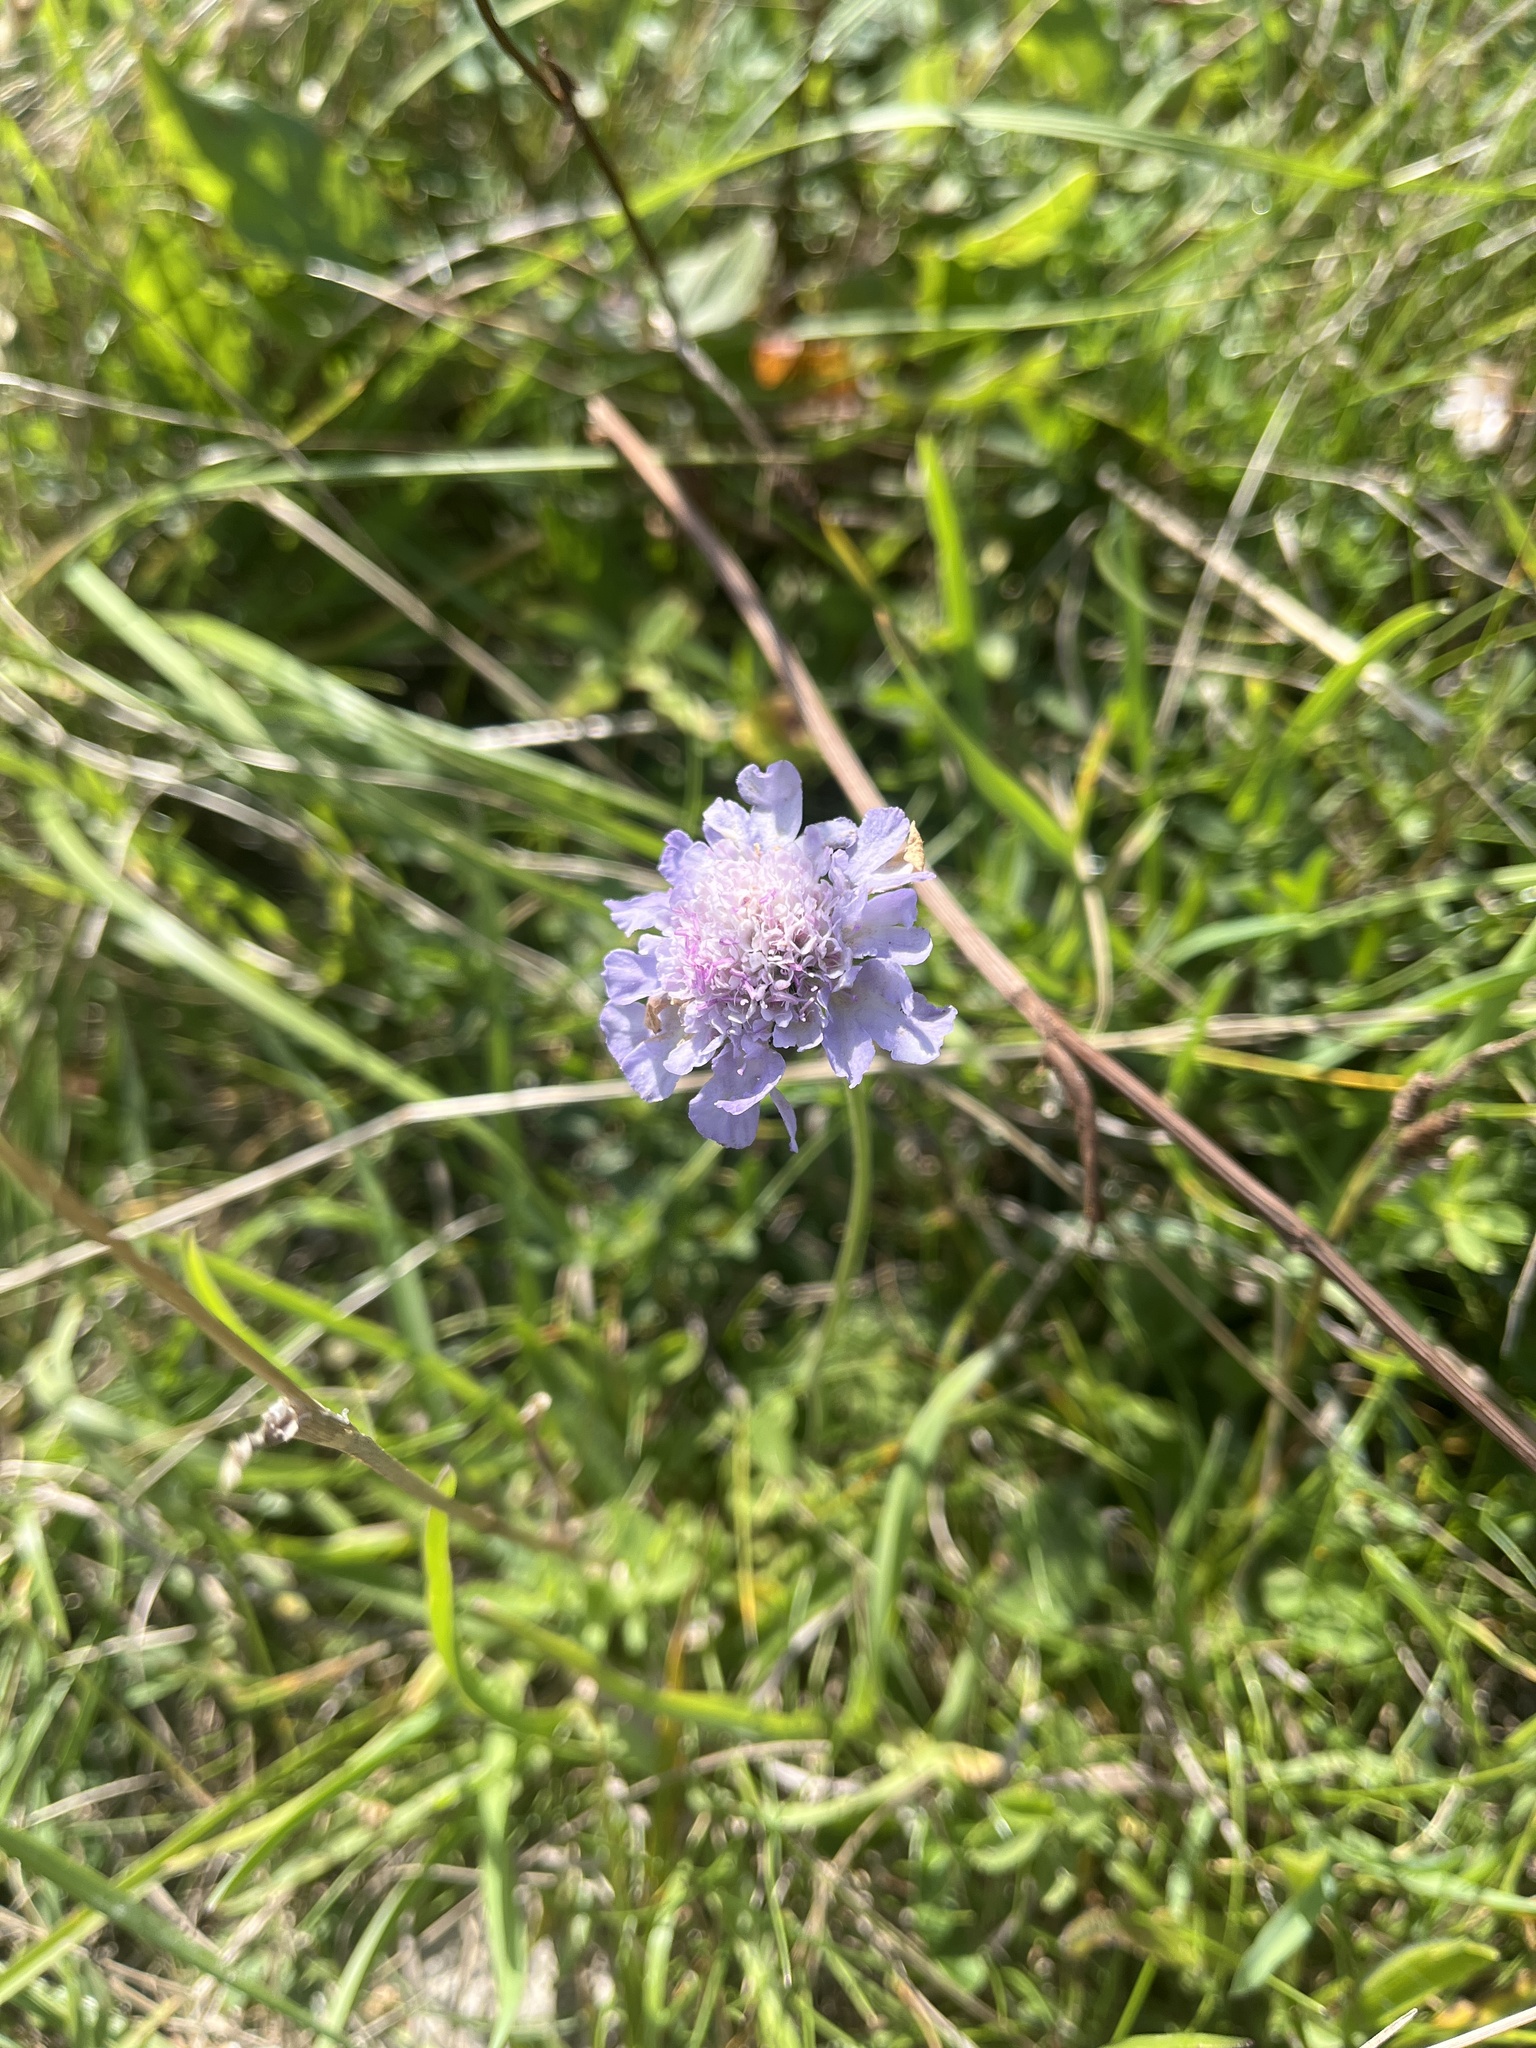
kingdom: Plantae
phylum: Tracheophyta
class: Magnoliopsida
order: Dipsacales
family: Caprifoliaceae
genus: Scabiosa
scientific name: Scabiosa columbaria
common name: Small scabious
